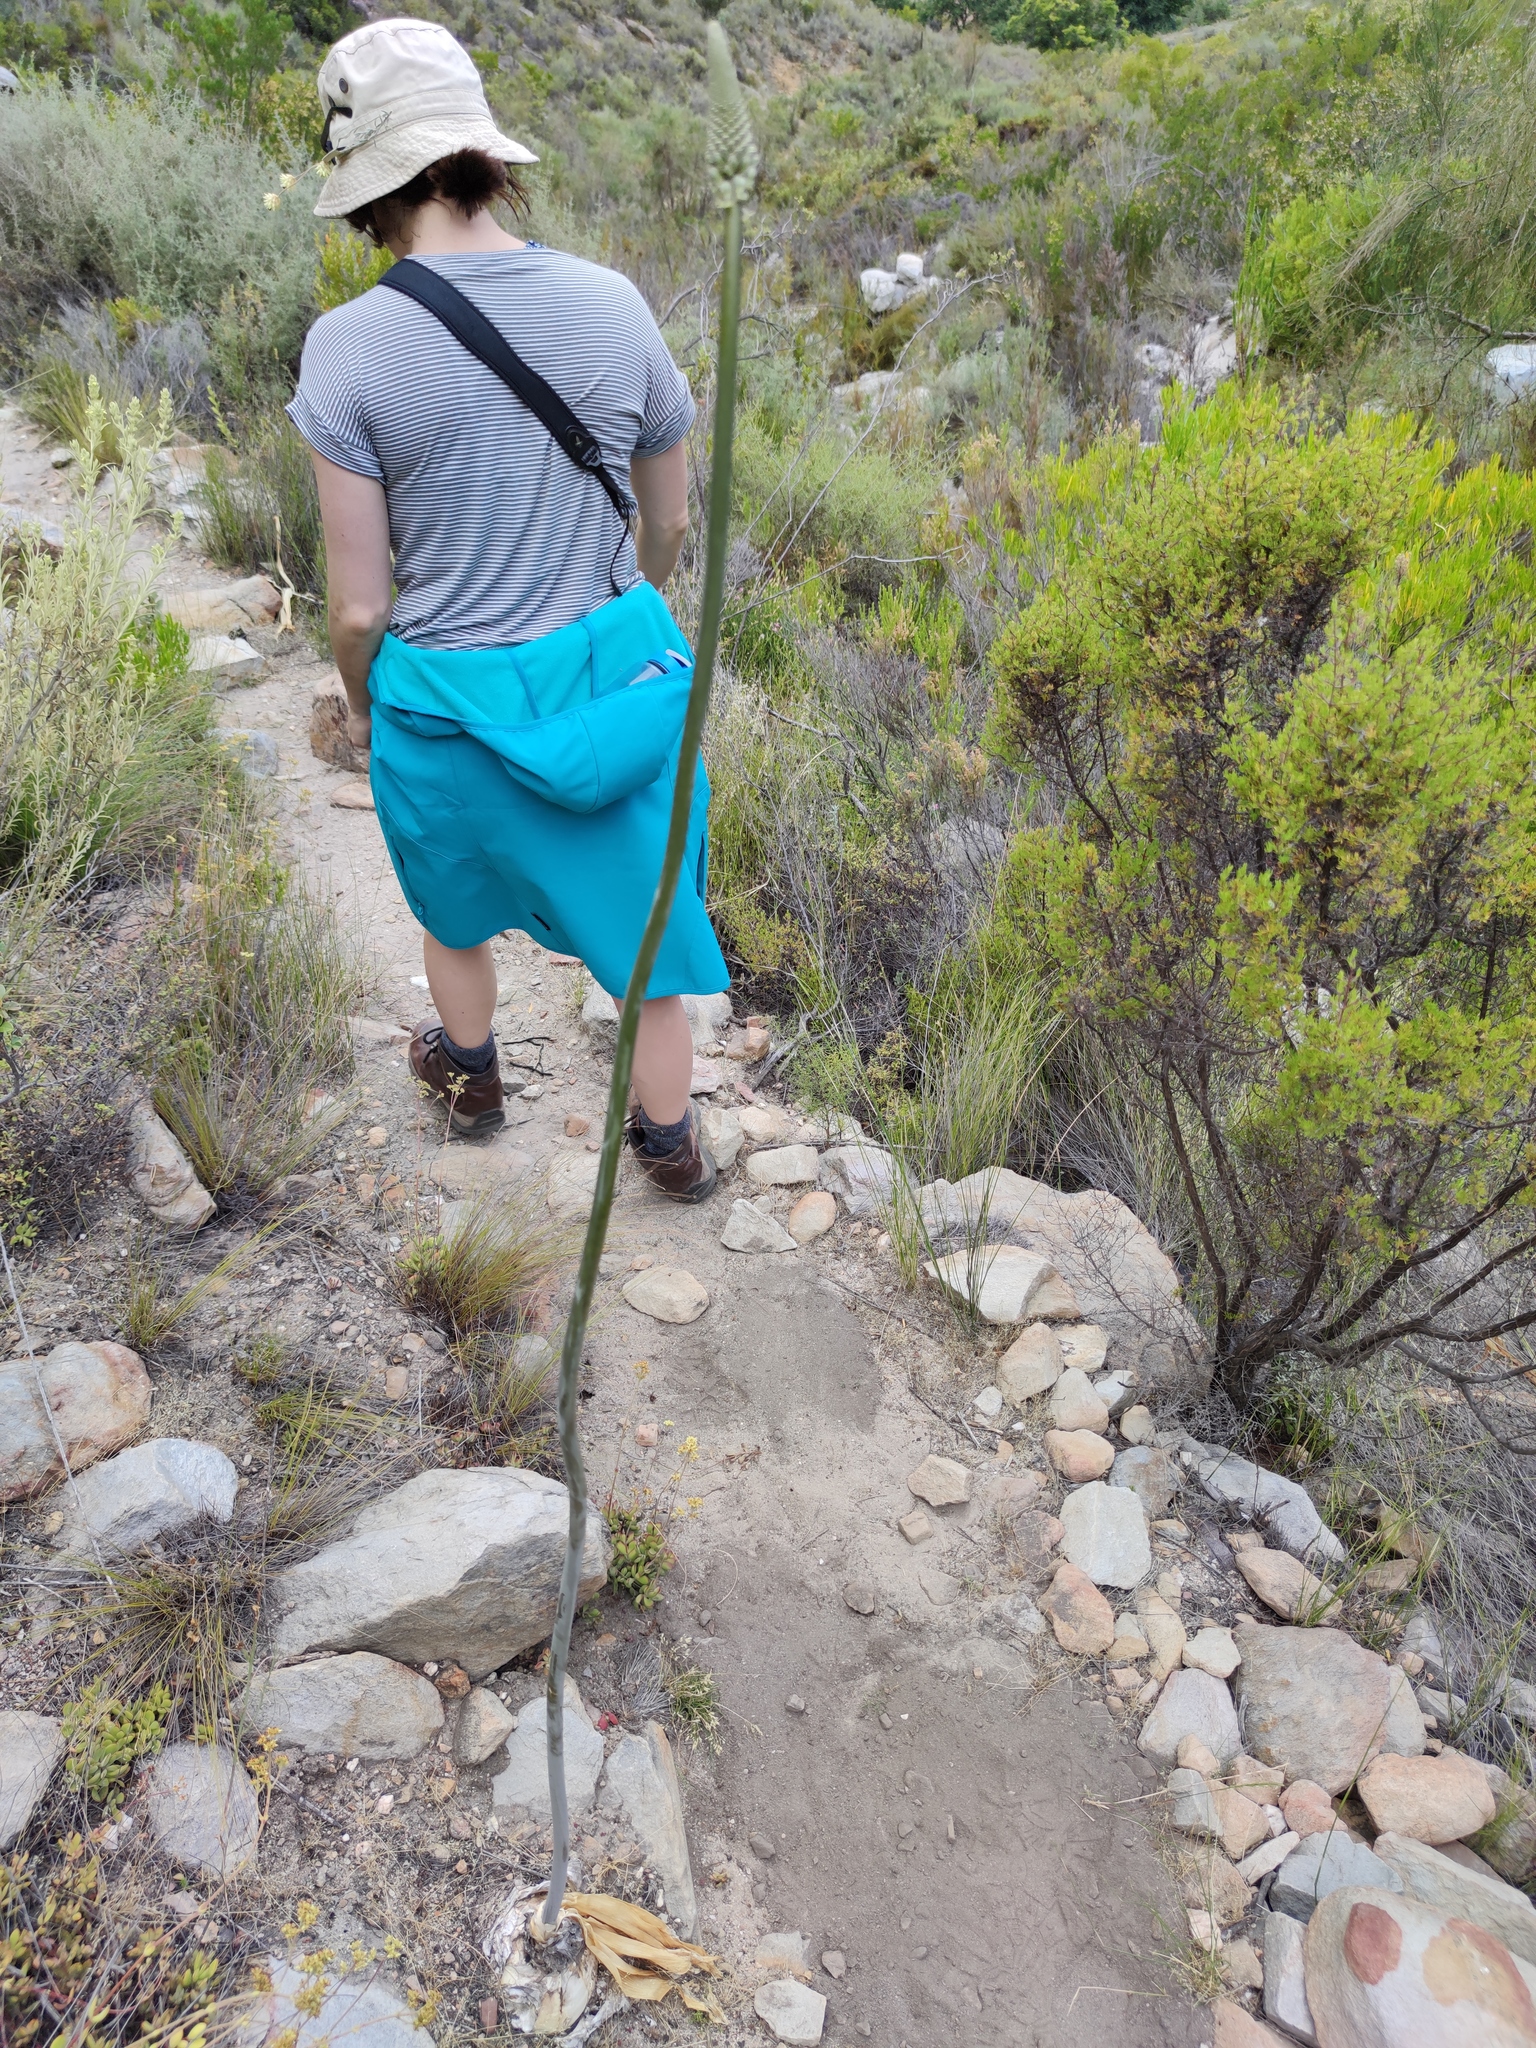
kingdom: Plantae
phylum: Tracheophyta
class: Liliopsida
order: Asparagales
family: Asparagaceae
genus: Drimia
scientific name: Drimia capensis
